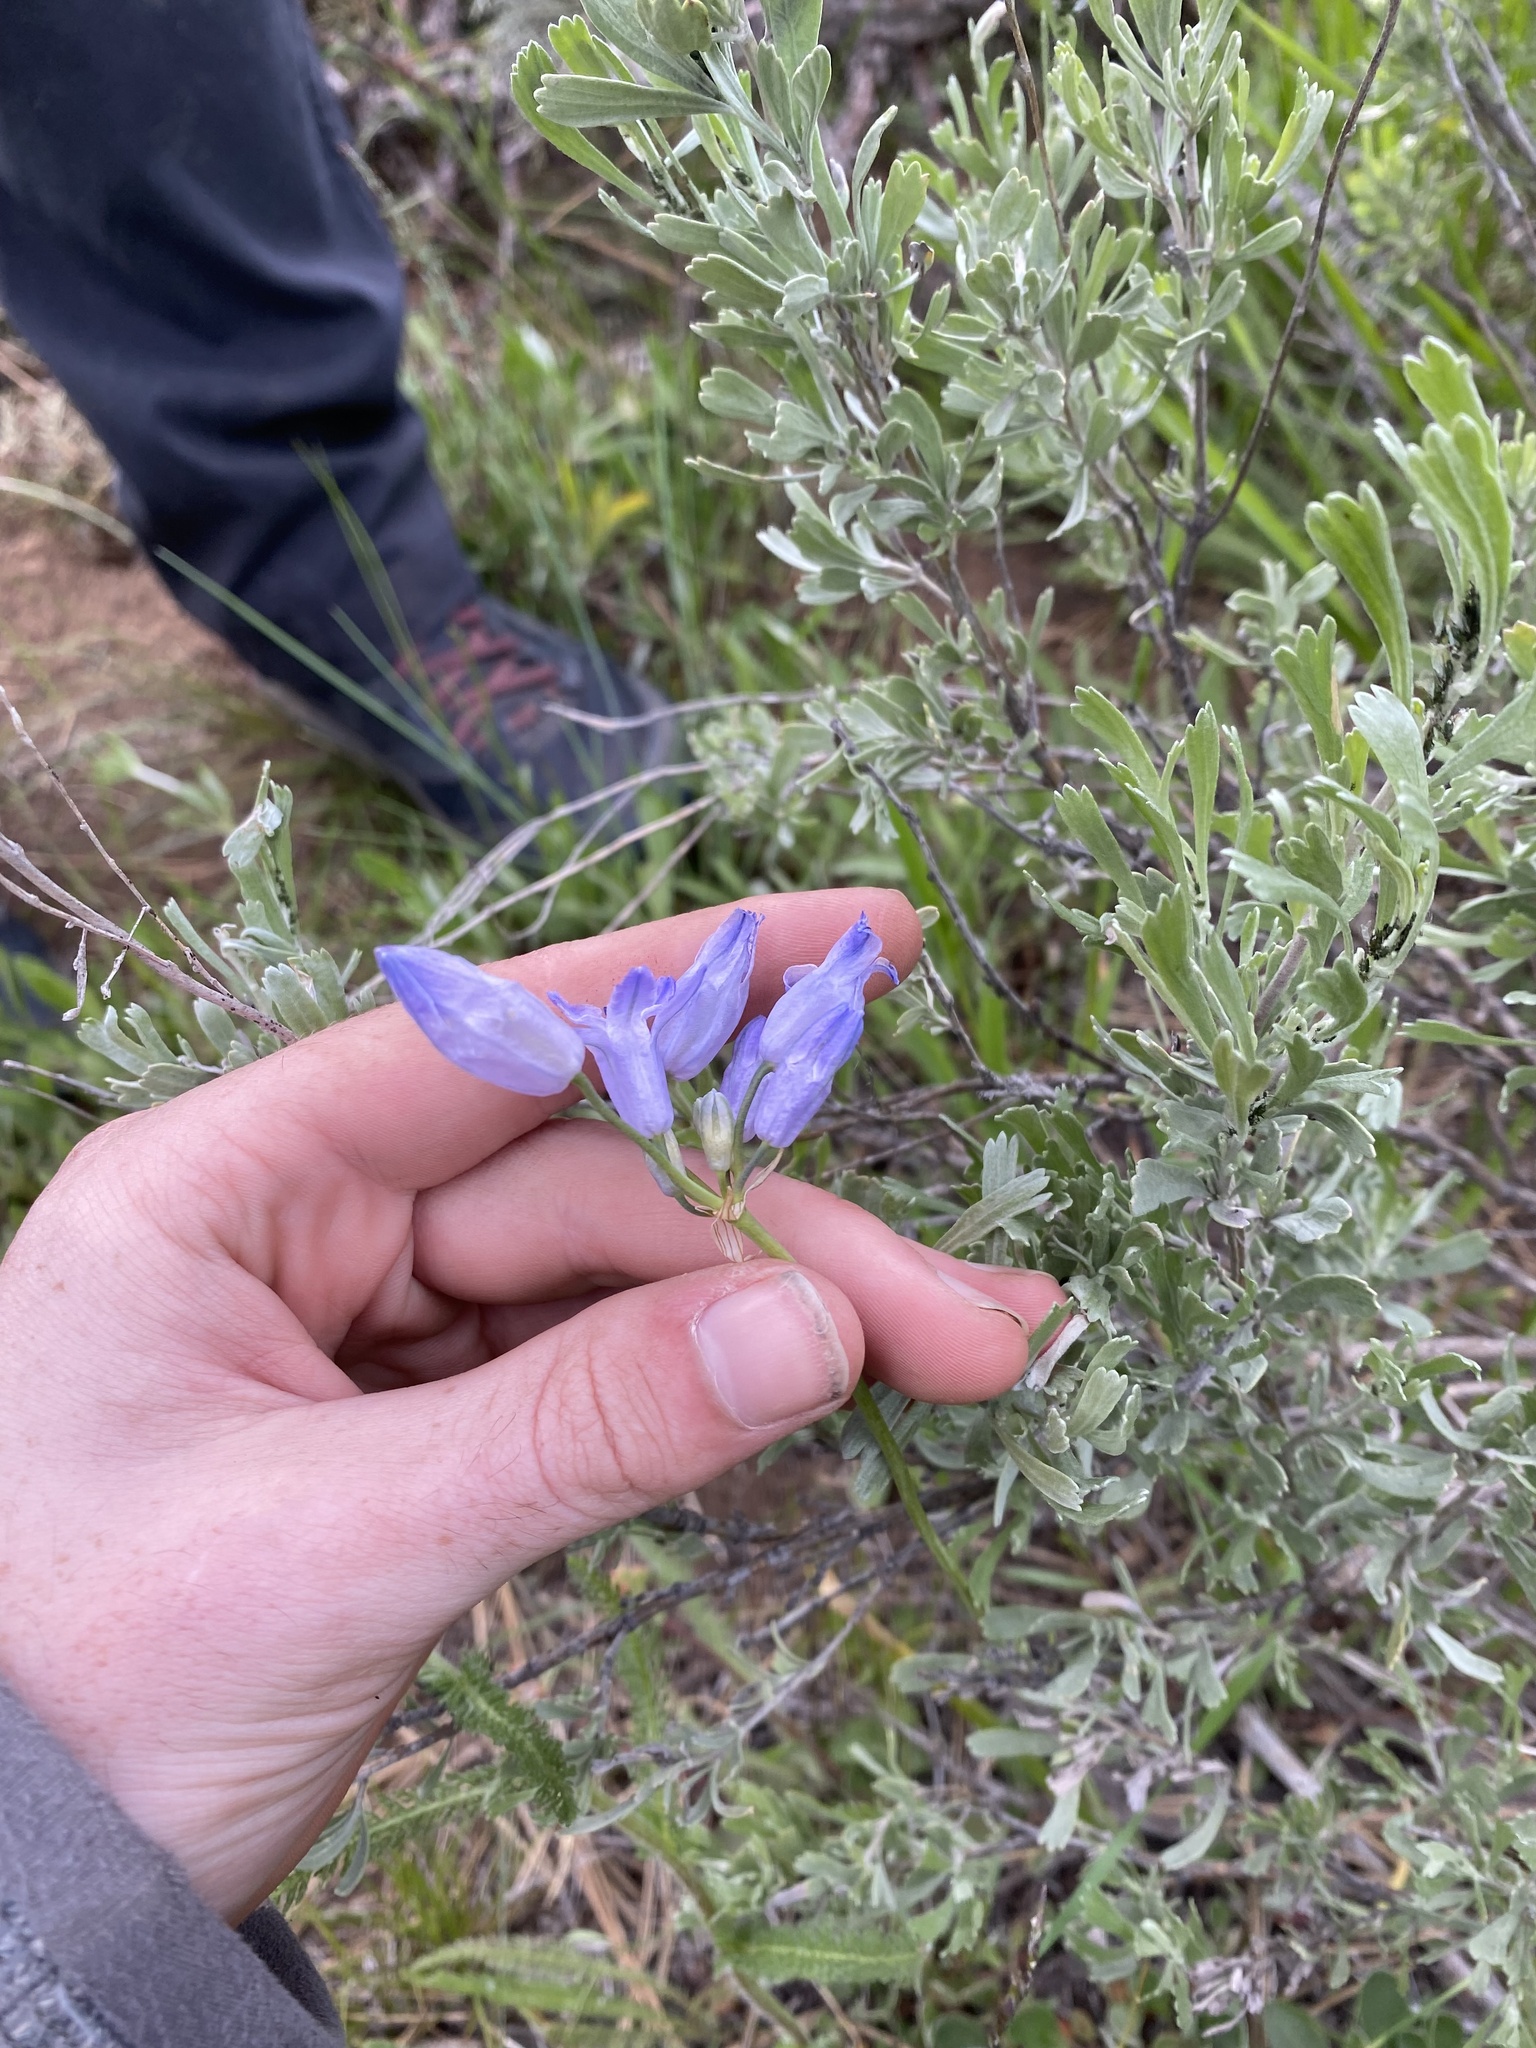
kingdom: Plantae
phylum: Tracheophyta
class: Liliopsida
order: Asparagales
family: Asparagaceae
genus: Triteleia
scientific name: Triteleia grandiflora
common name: Wild hyacinth
